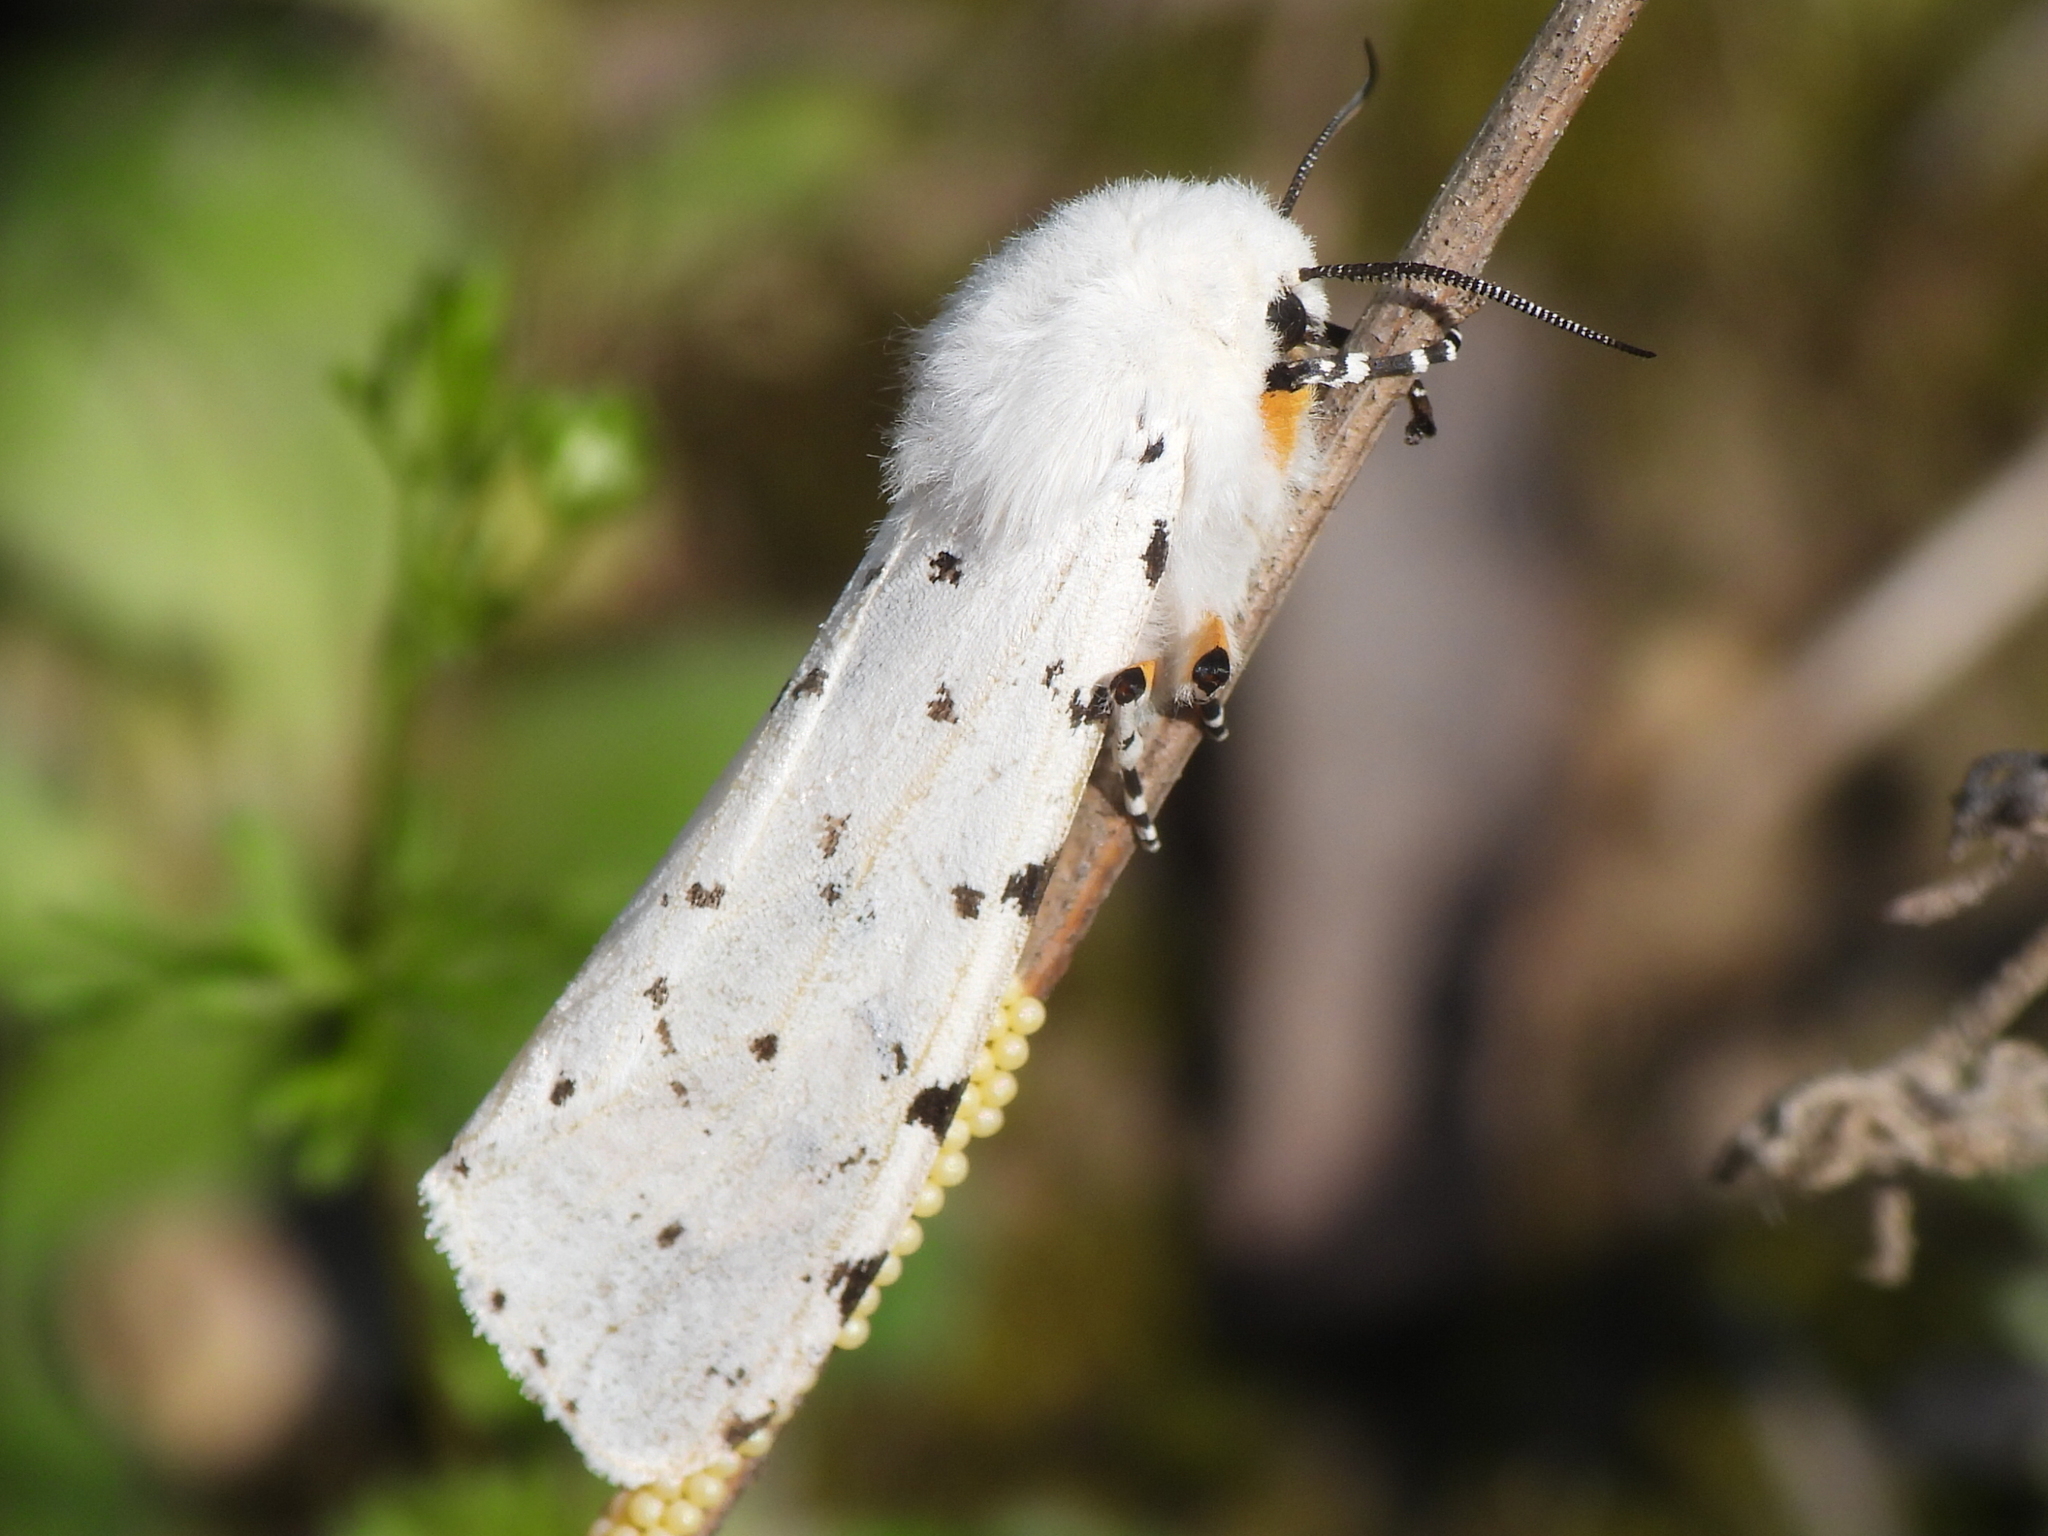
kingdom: Animalia
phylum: Arthropoda
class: Insecta
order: Lepidoptera
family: Erebidae
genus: Estigmene
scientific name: Estigmene acrea
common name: Salt marsh moth
